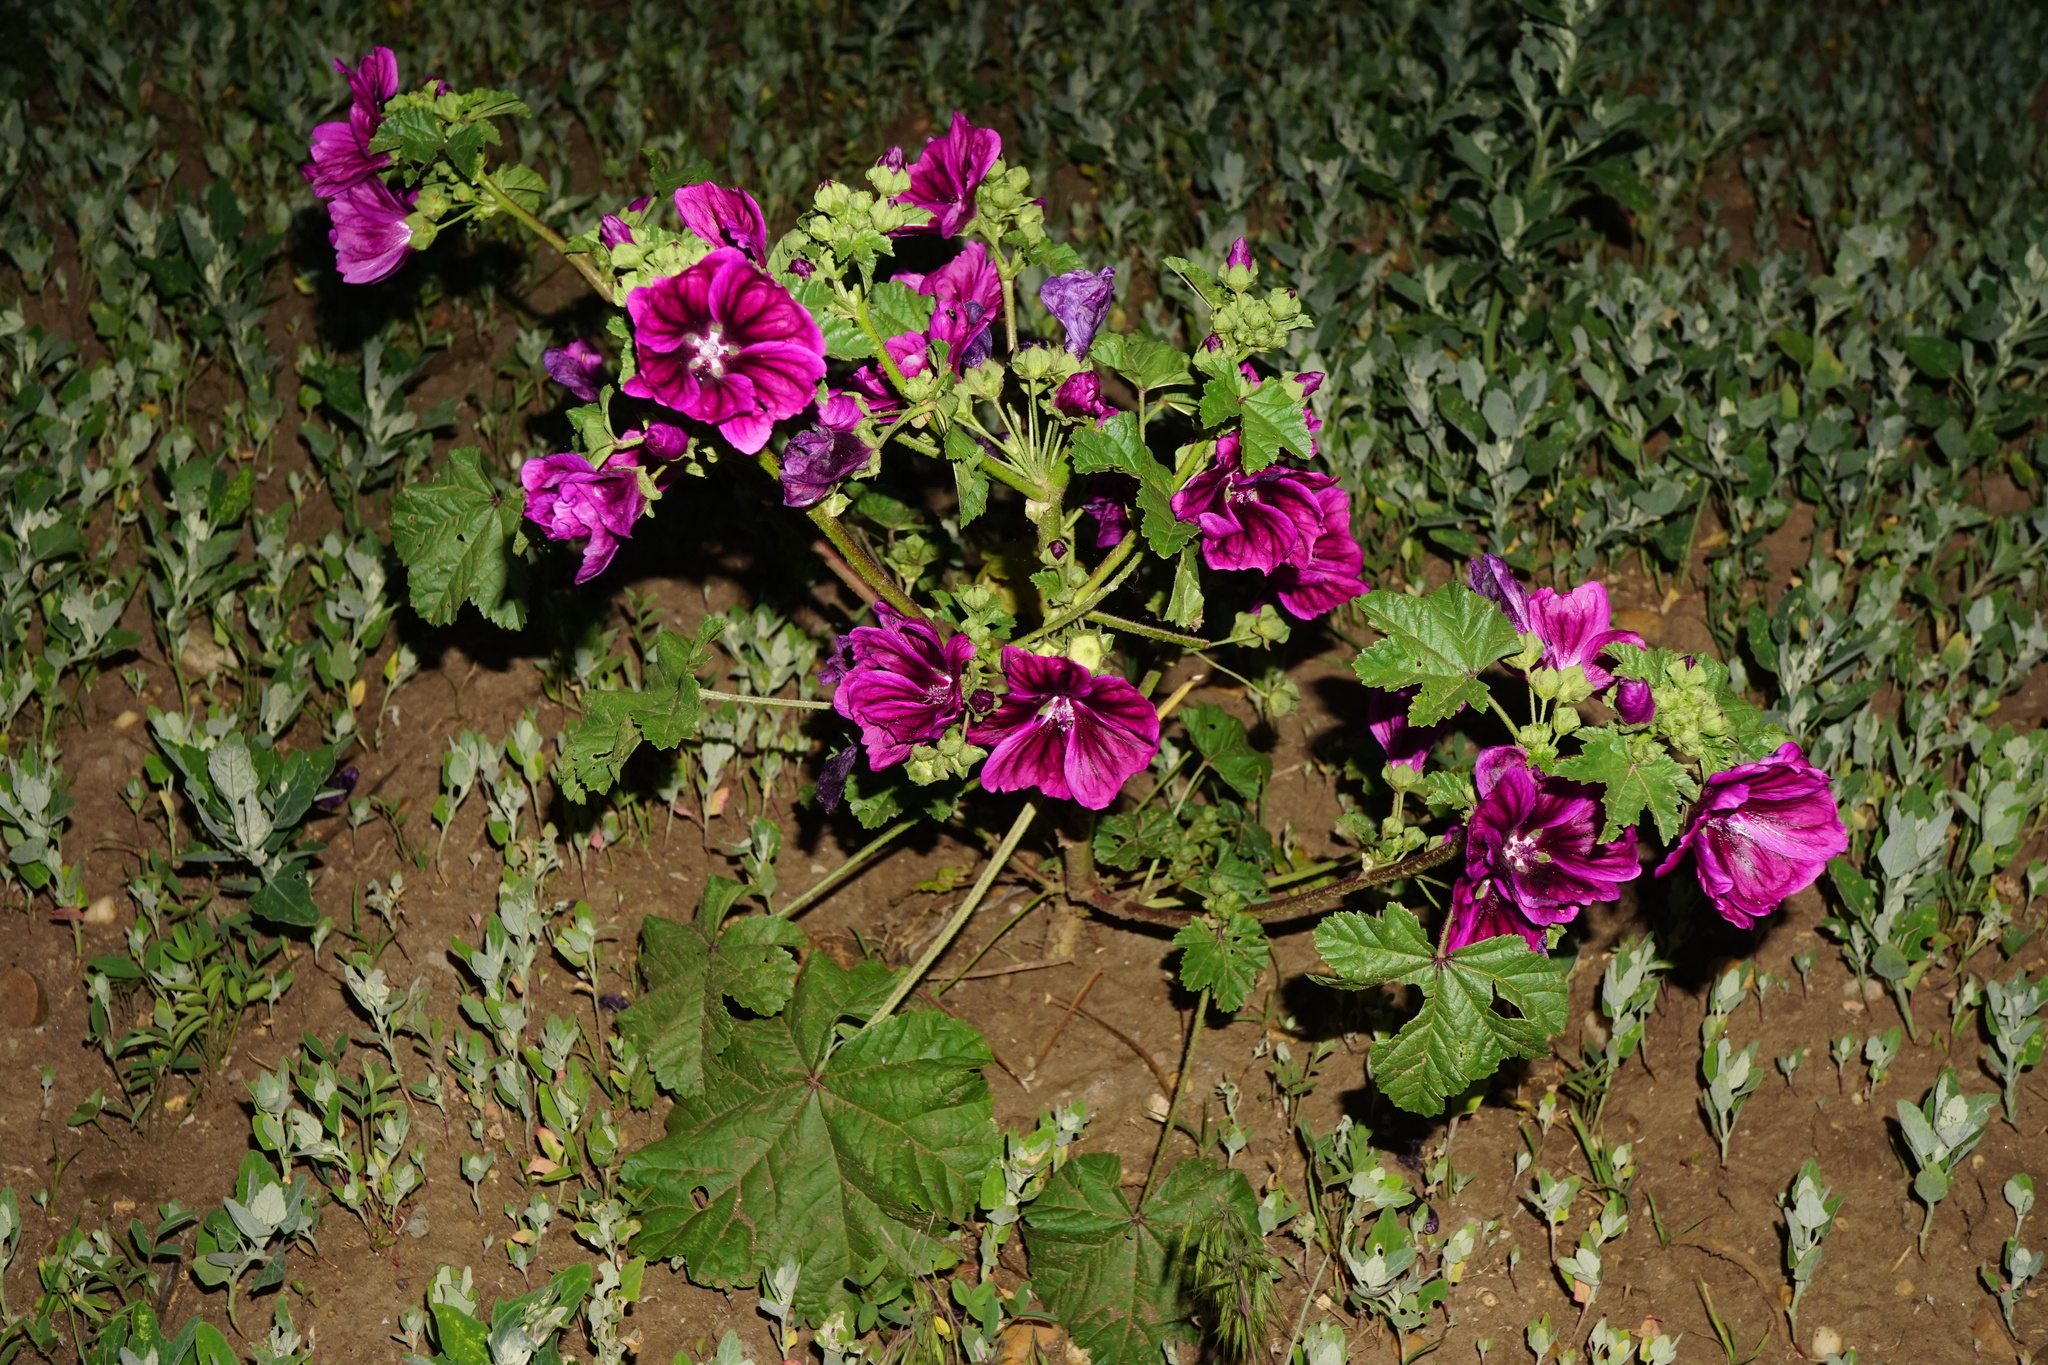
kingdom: Plantae
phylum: Tracheophyta
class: Magnoliopsida
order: Malvales
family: Malvaceae
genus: Malva
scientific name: Malva sylvestris
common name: Common mallow
